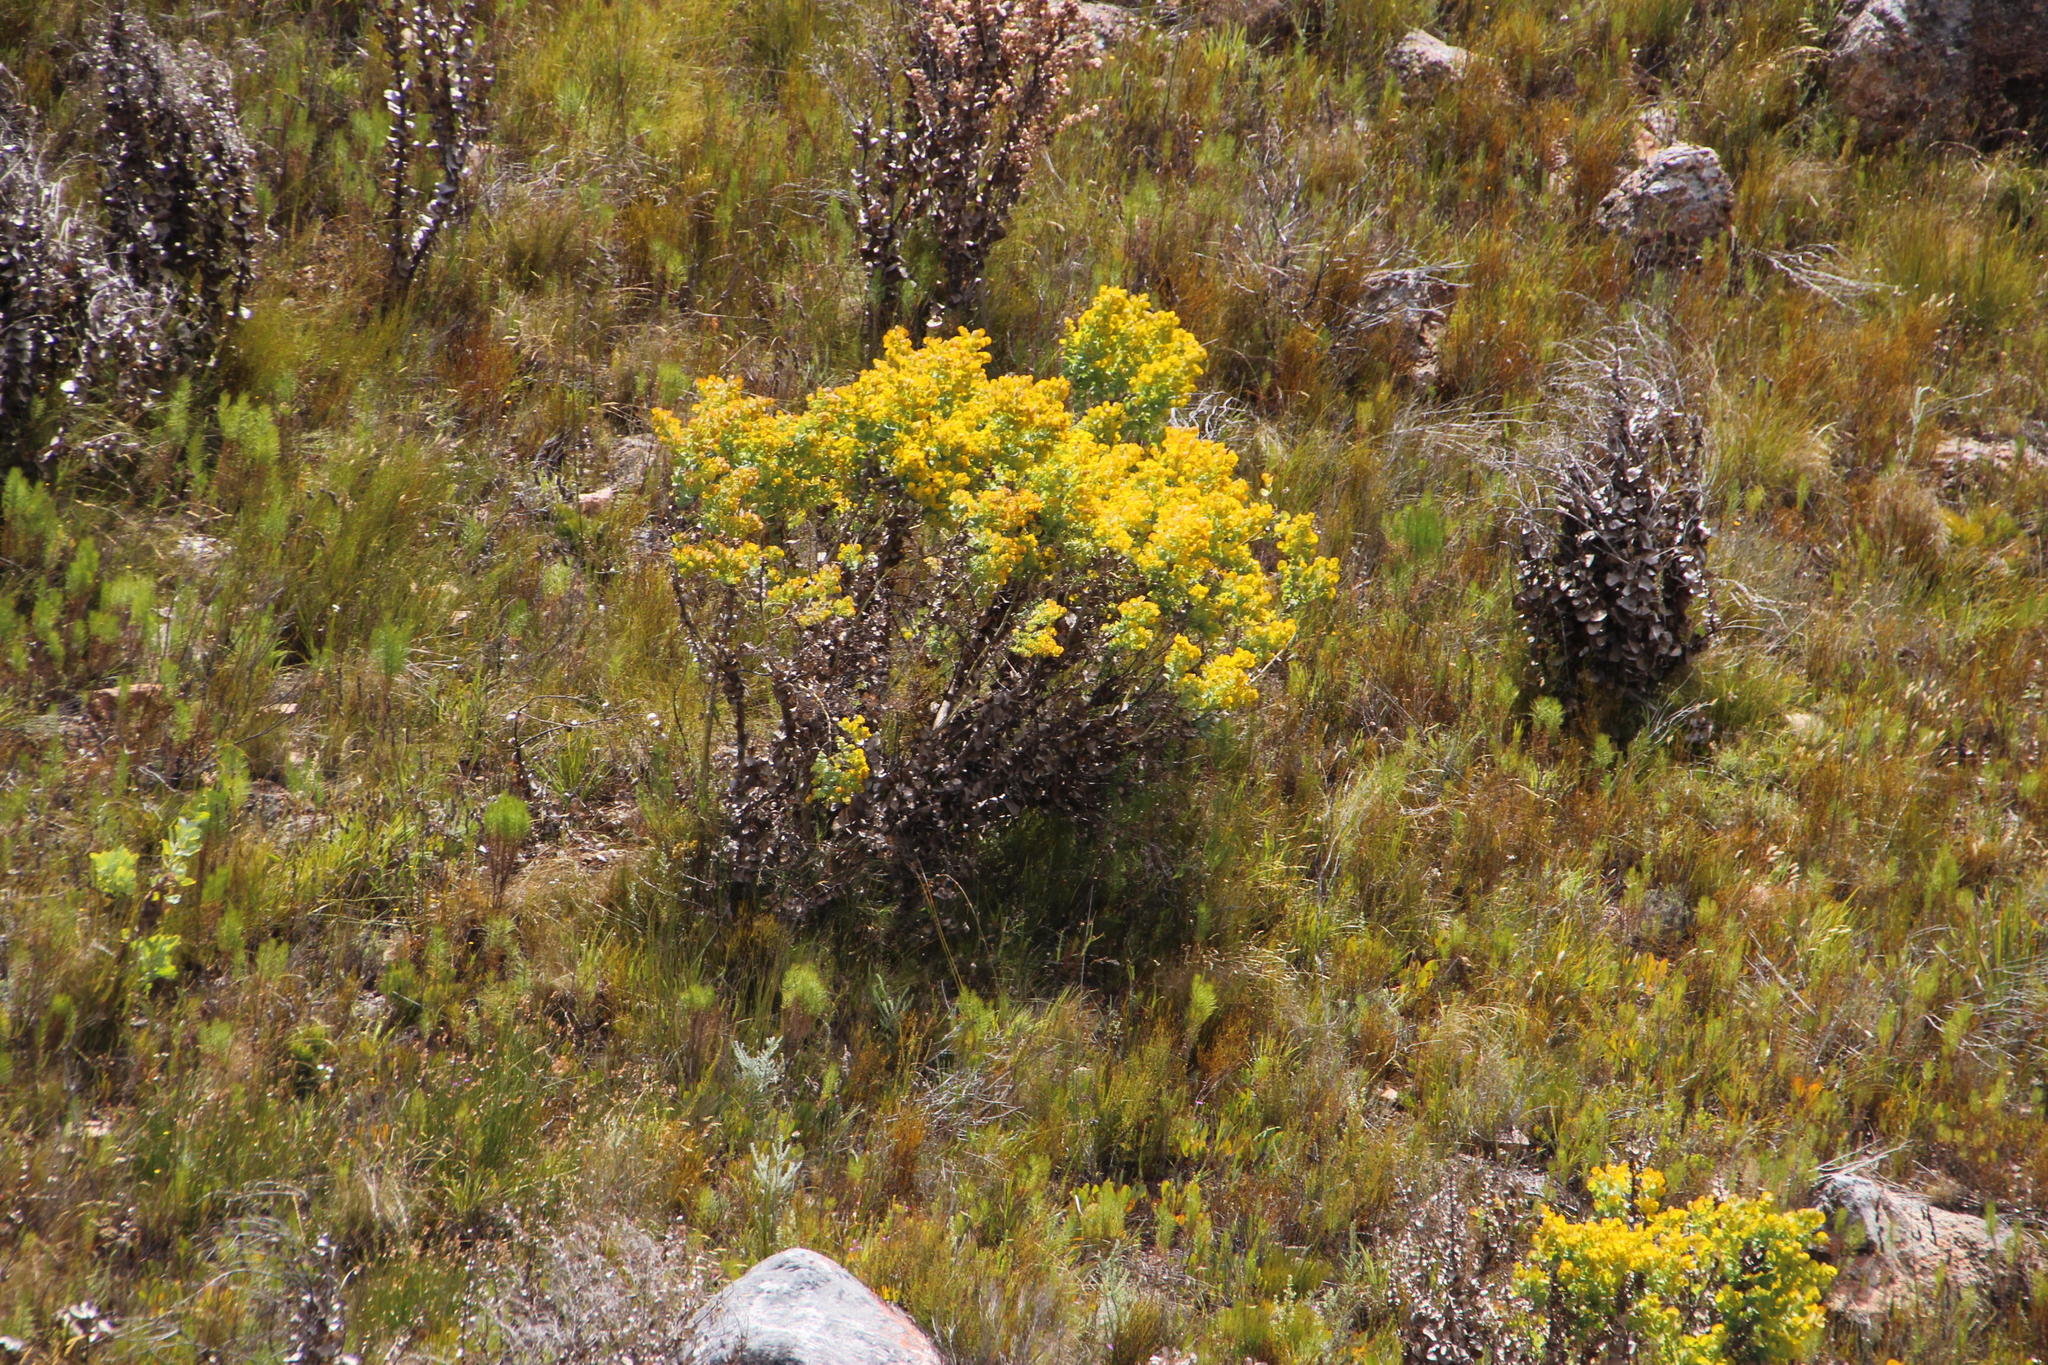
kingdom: Plantae
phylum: Tracheophyta
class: Magnoliopsida
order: Asterales
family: Asteraceae
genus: Othonna
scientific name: Othonna parviflora
